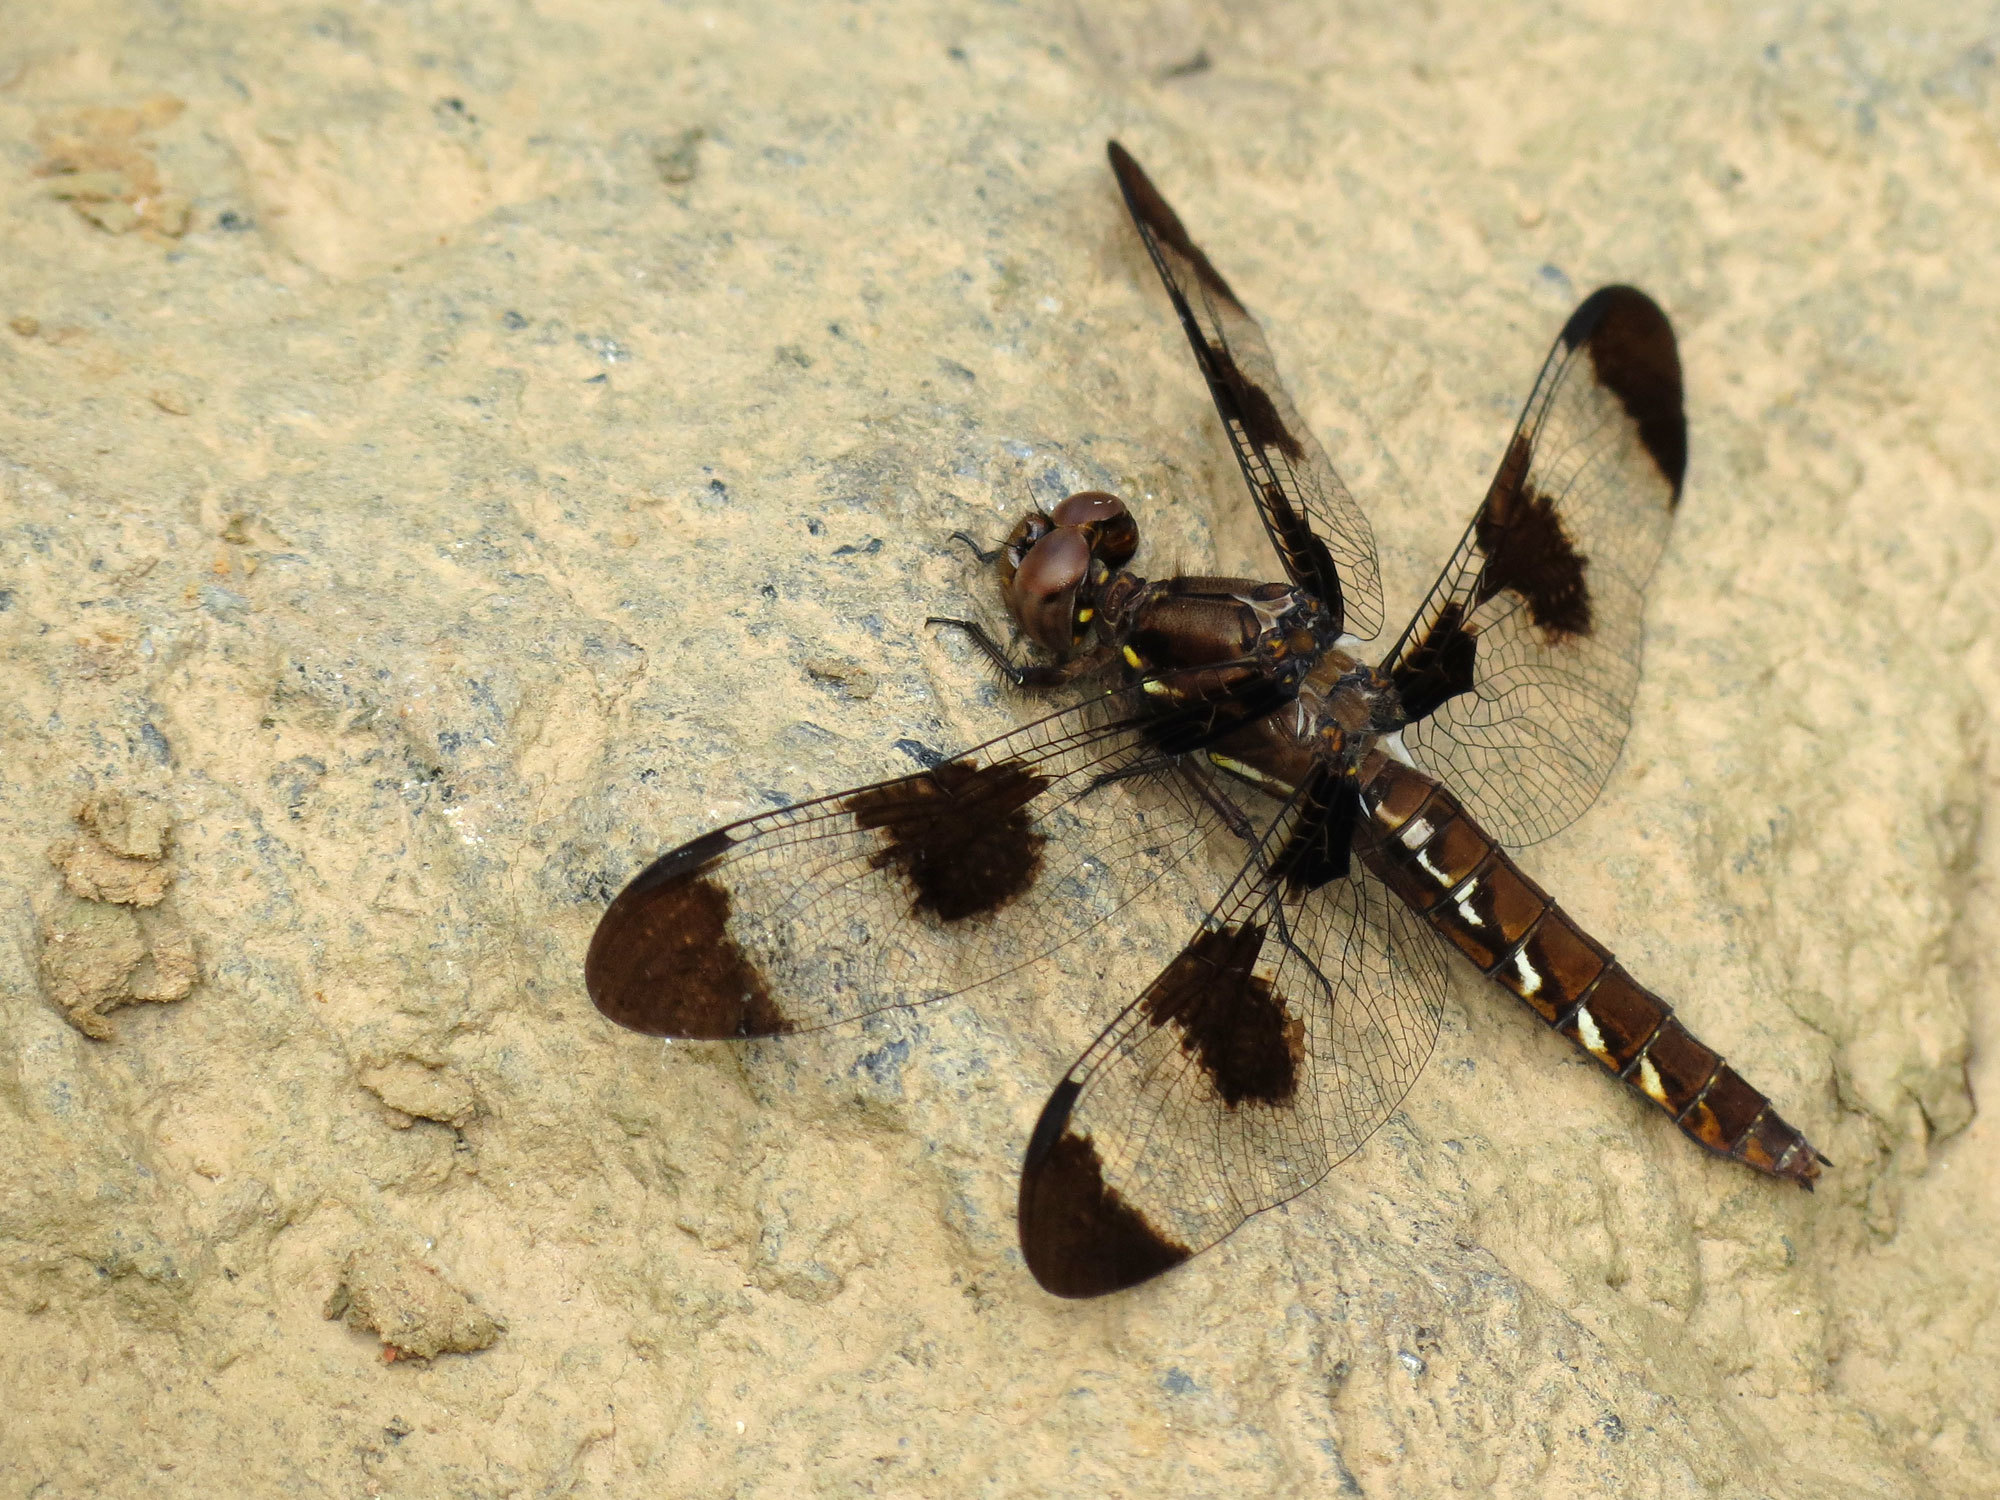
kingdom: Animalia
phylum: Arthropoda
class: Insecta
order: Odonata
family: Libellulidae
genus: Plathemis
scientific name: Plathemis lydia
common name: Common whitetail
